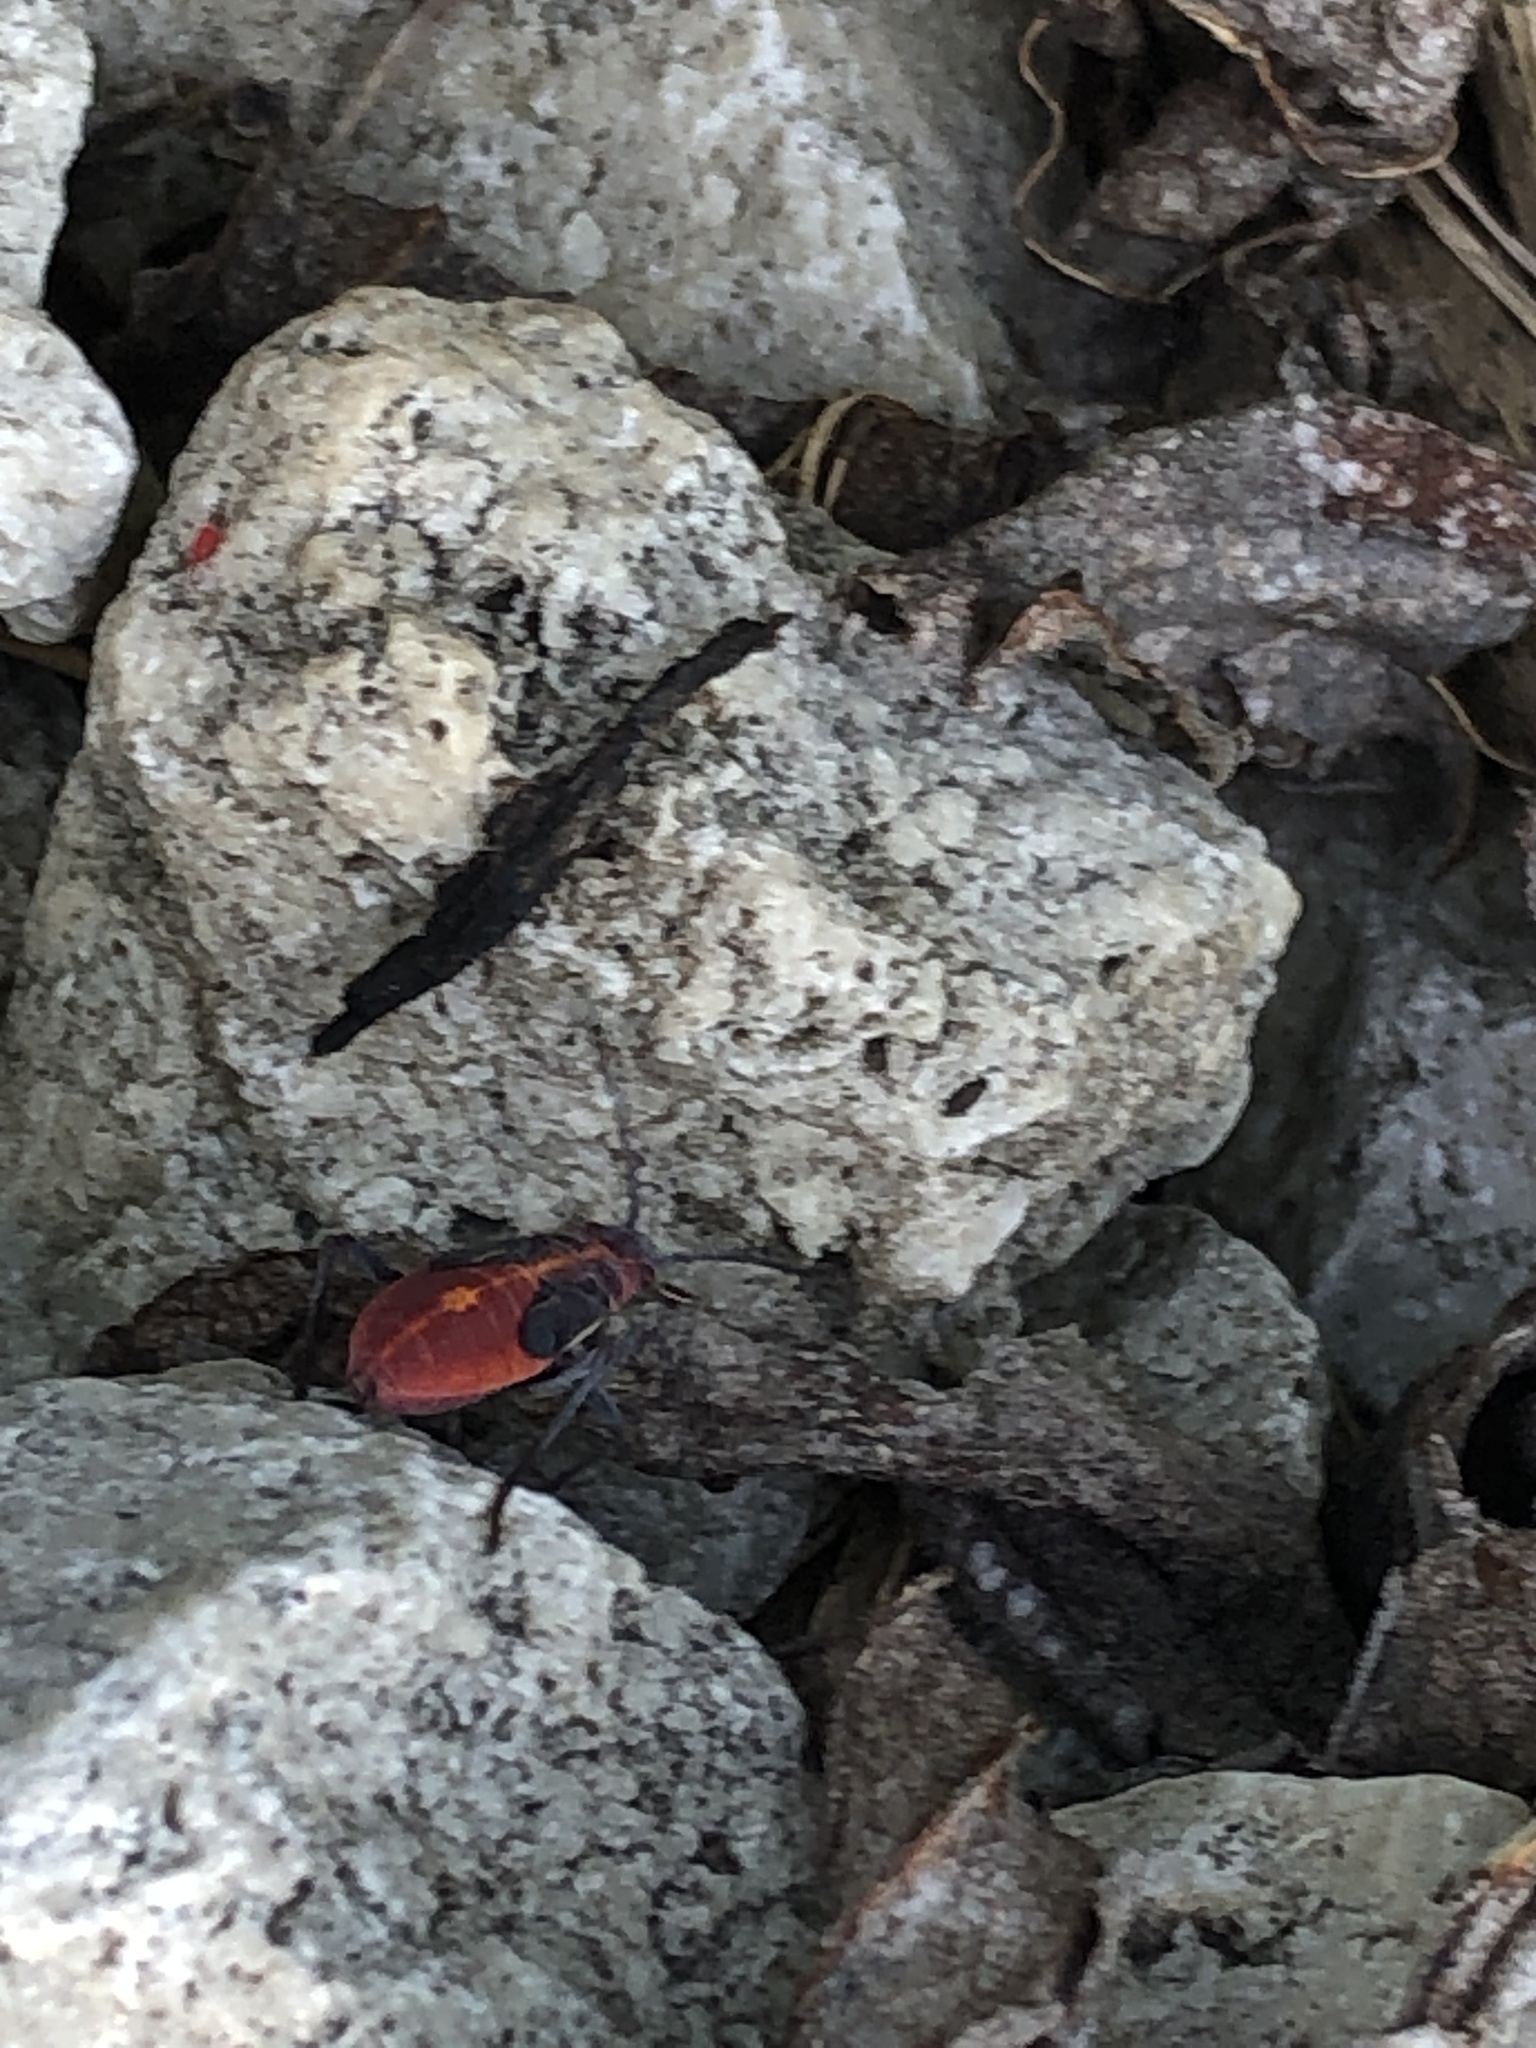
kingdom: Animalia
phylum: Arthropoda
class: Insecta
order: Hemiptera
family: Rhopalidae
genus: Boisea
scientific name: Boisea trivittata
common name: Boxelder bug
